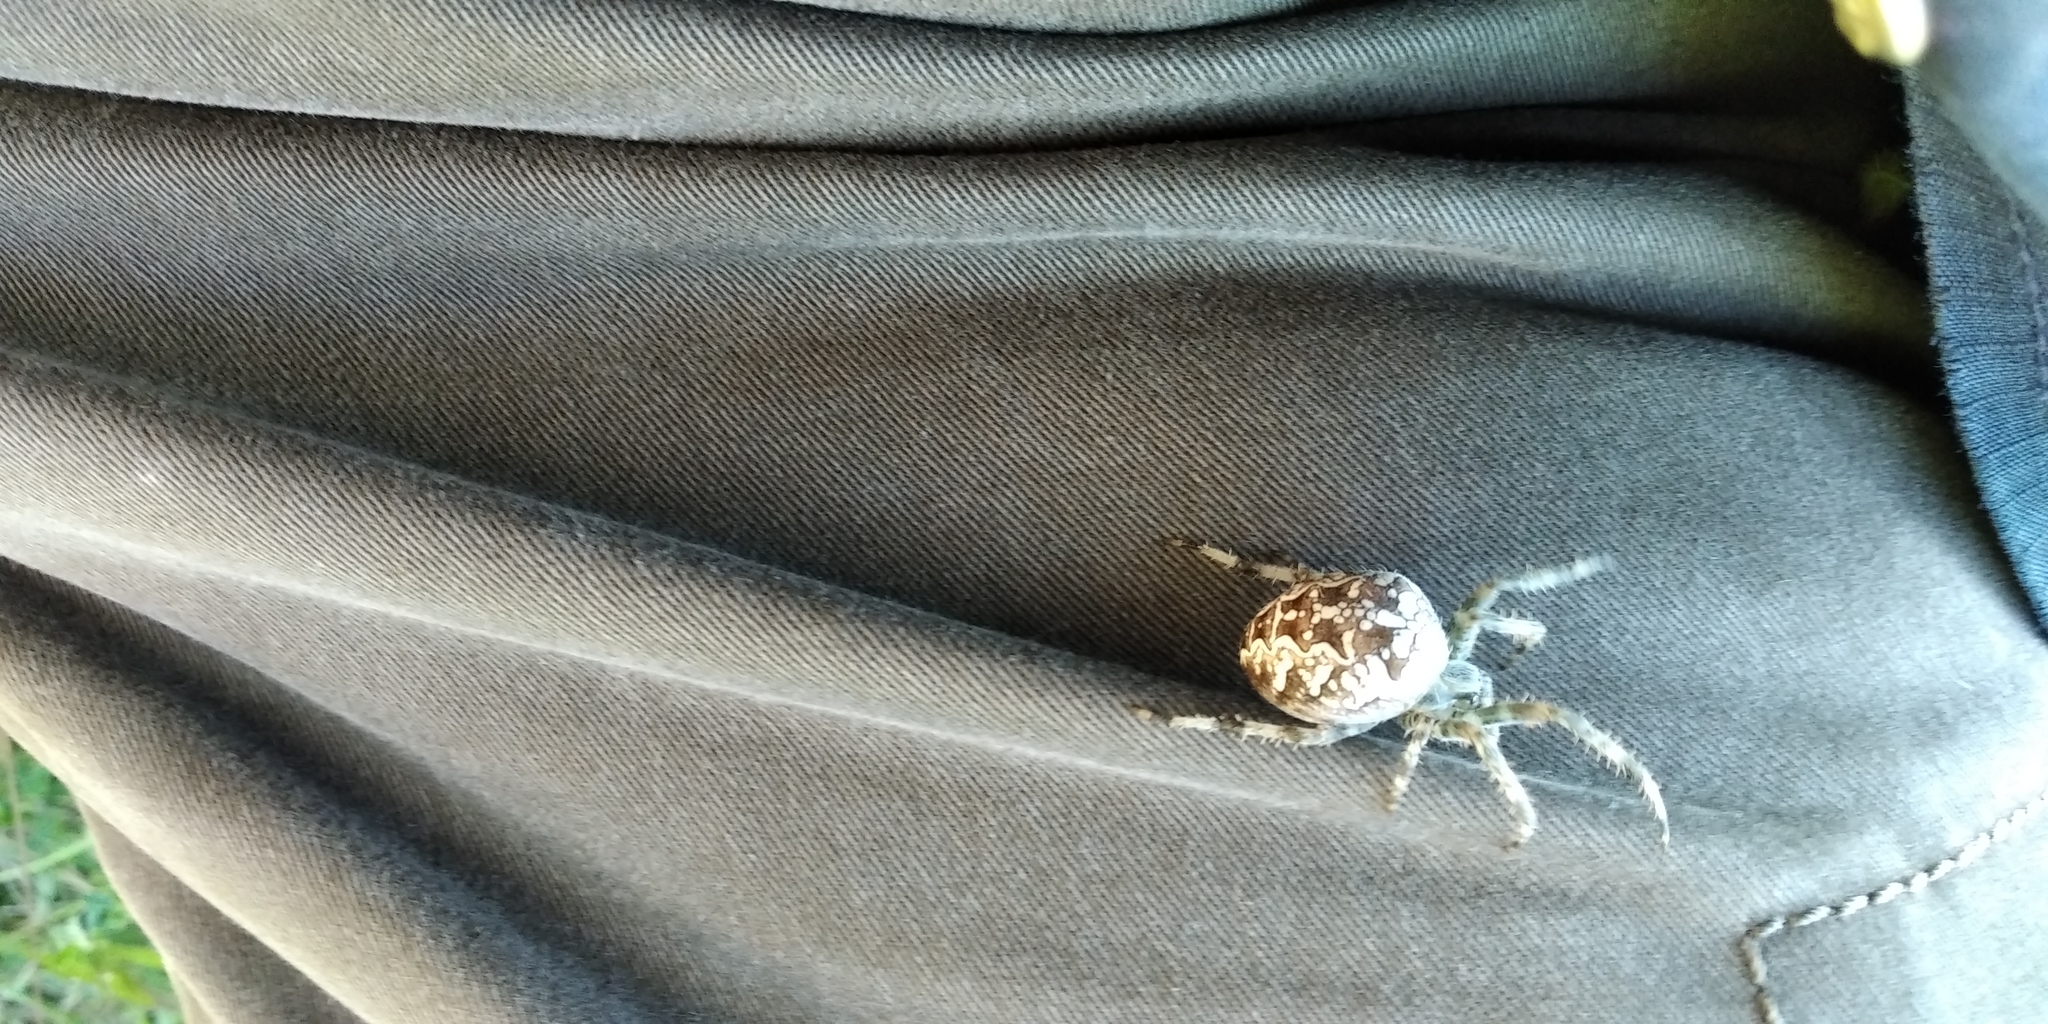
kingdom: Animalia
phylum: Arthropoda
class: Arachnida
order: Araneae
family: Araneidae
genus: Araneus
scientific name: Araneus diadematus
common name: Cross orbweaver
